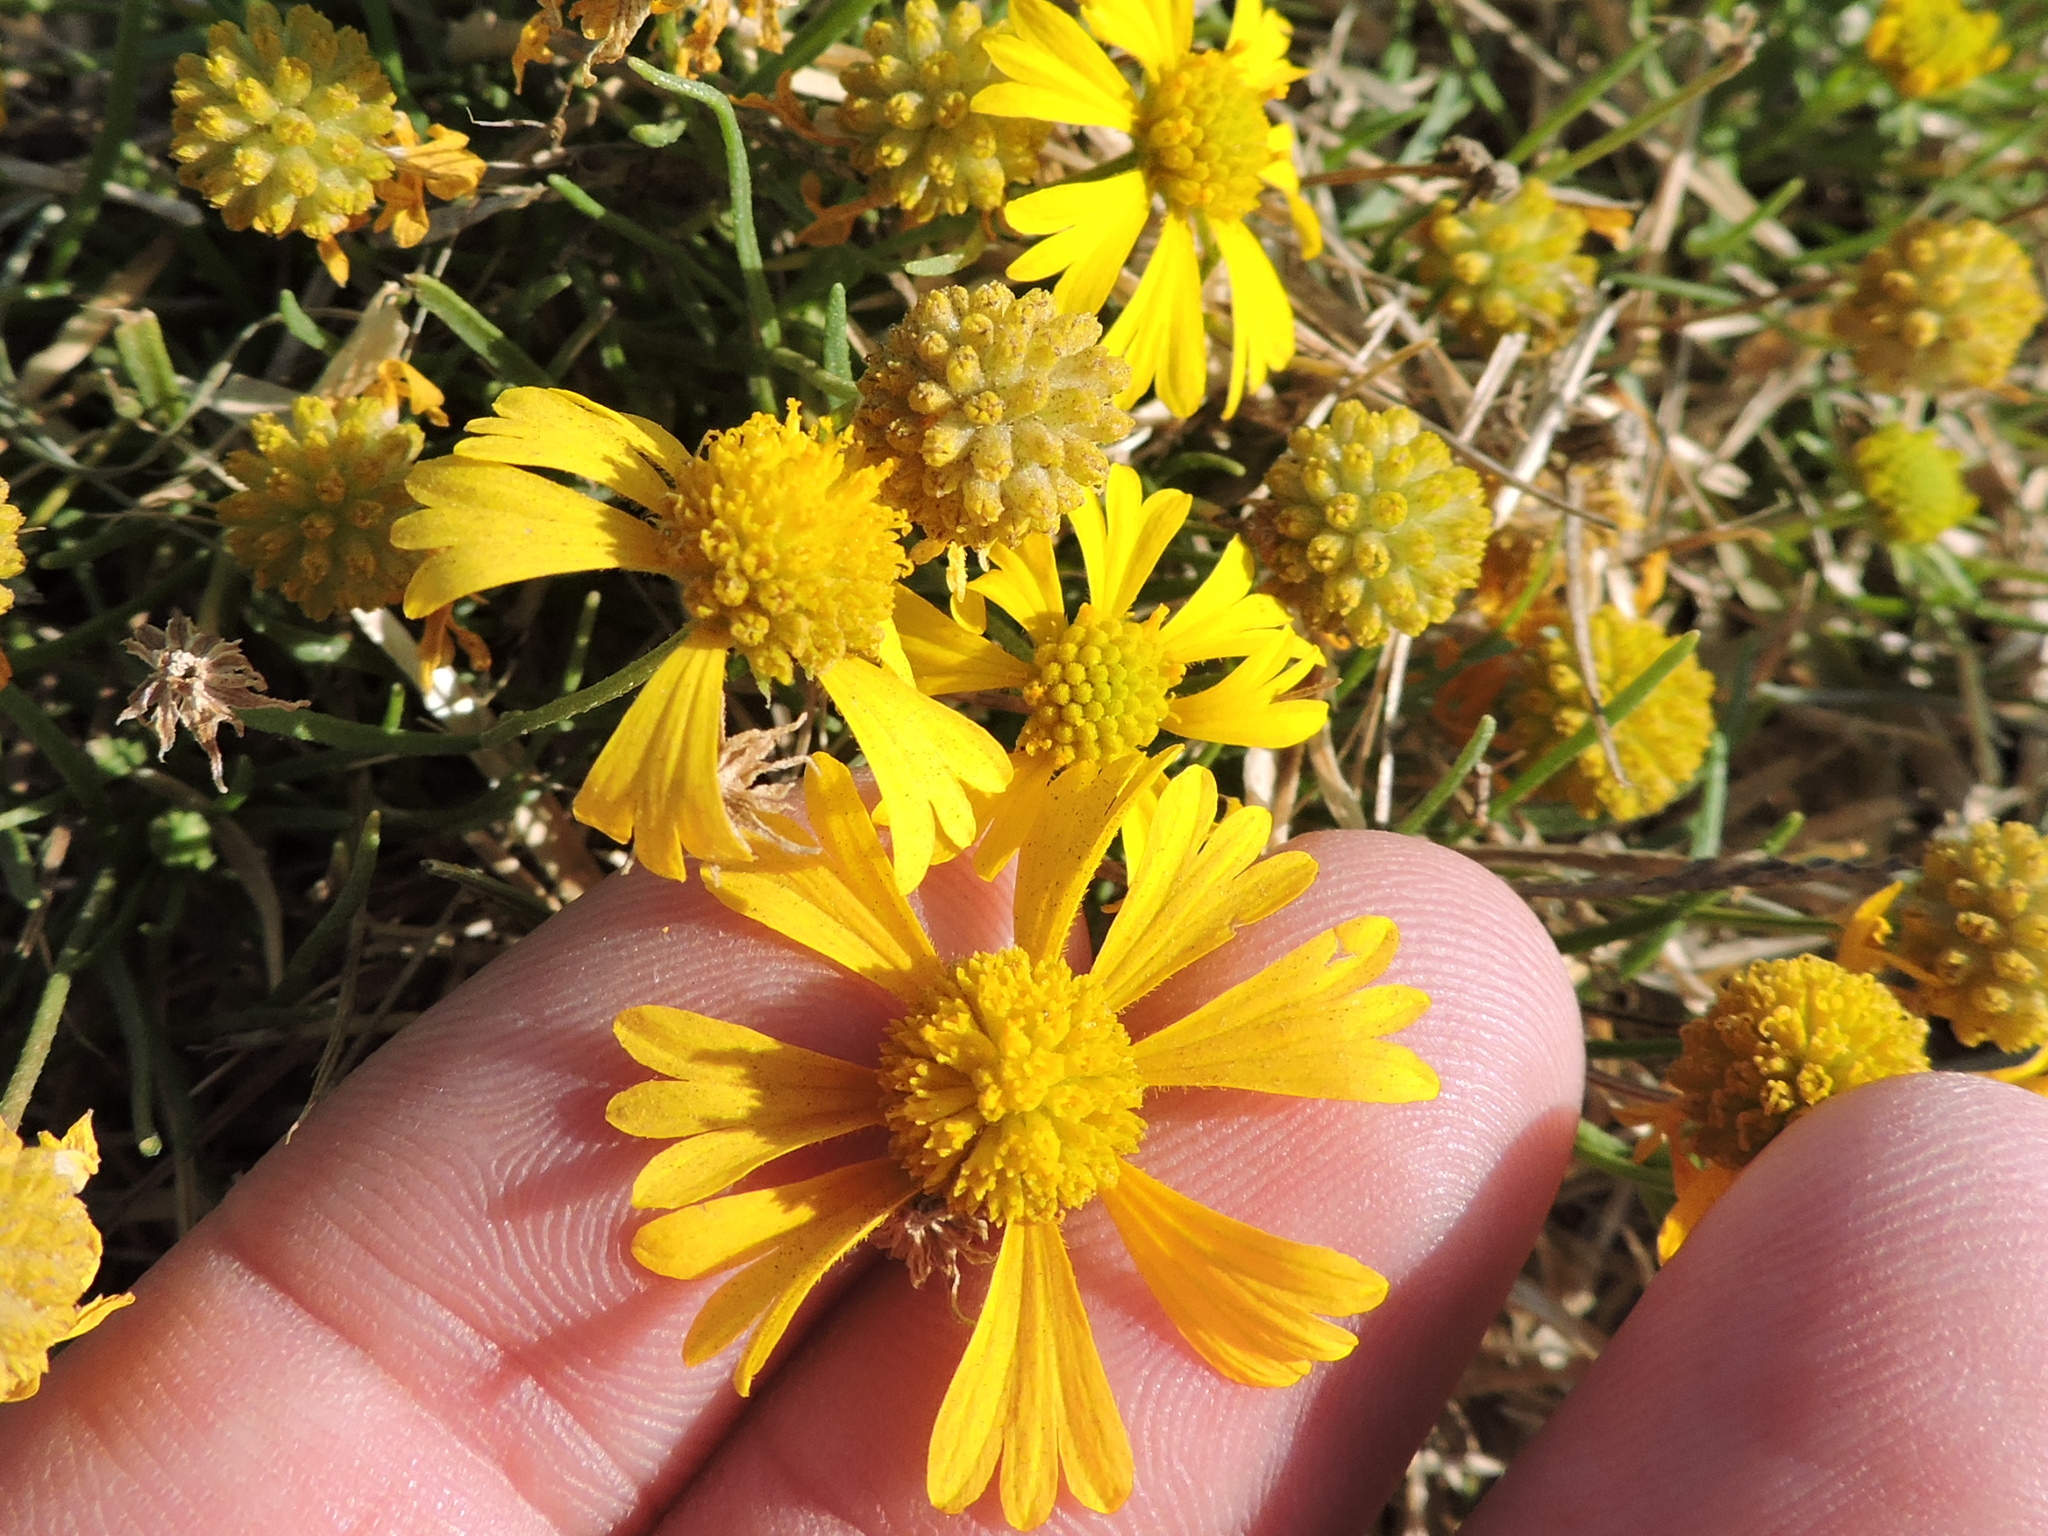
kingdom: Plantae
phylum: Tracheophyta
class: Magnoliopsida
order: Asterales
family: Asteraceae
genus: Helenium
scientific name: Helenium amarum
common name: Bitter sneezeweed
